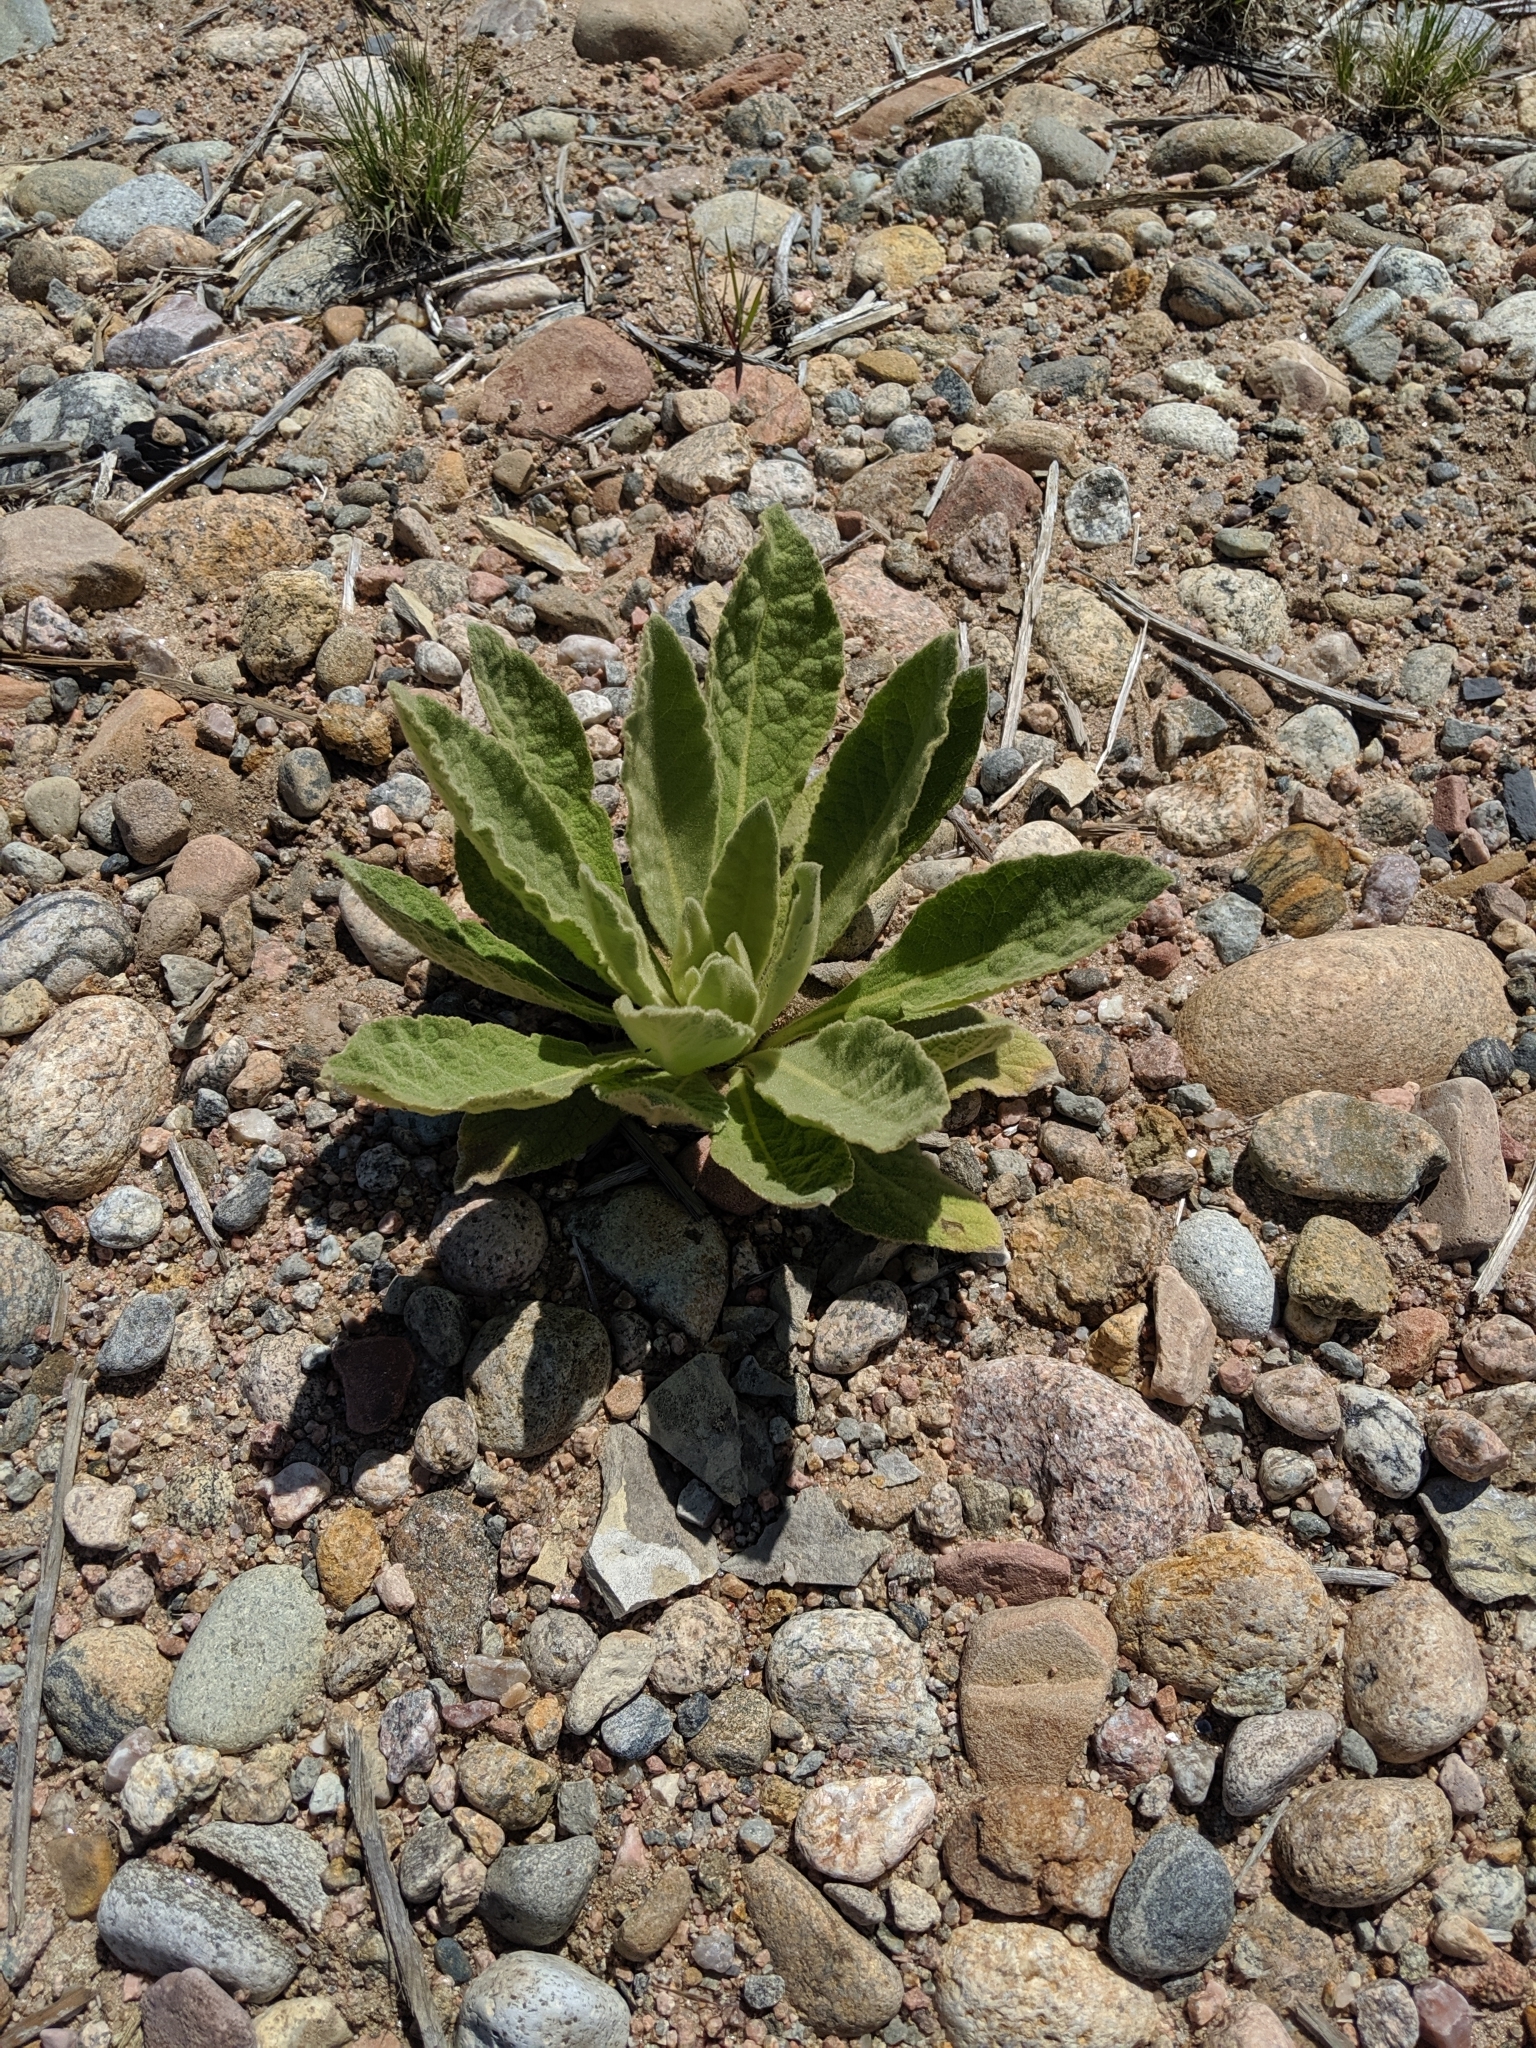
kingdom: Plantae
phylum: Tracheophyta
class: Magnoliopsida
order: Lamiales
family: Scrophulariaceae
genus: Verbascum
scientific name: Verbascum thapsus
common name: Common mullein
